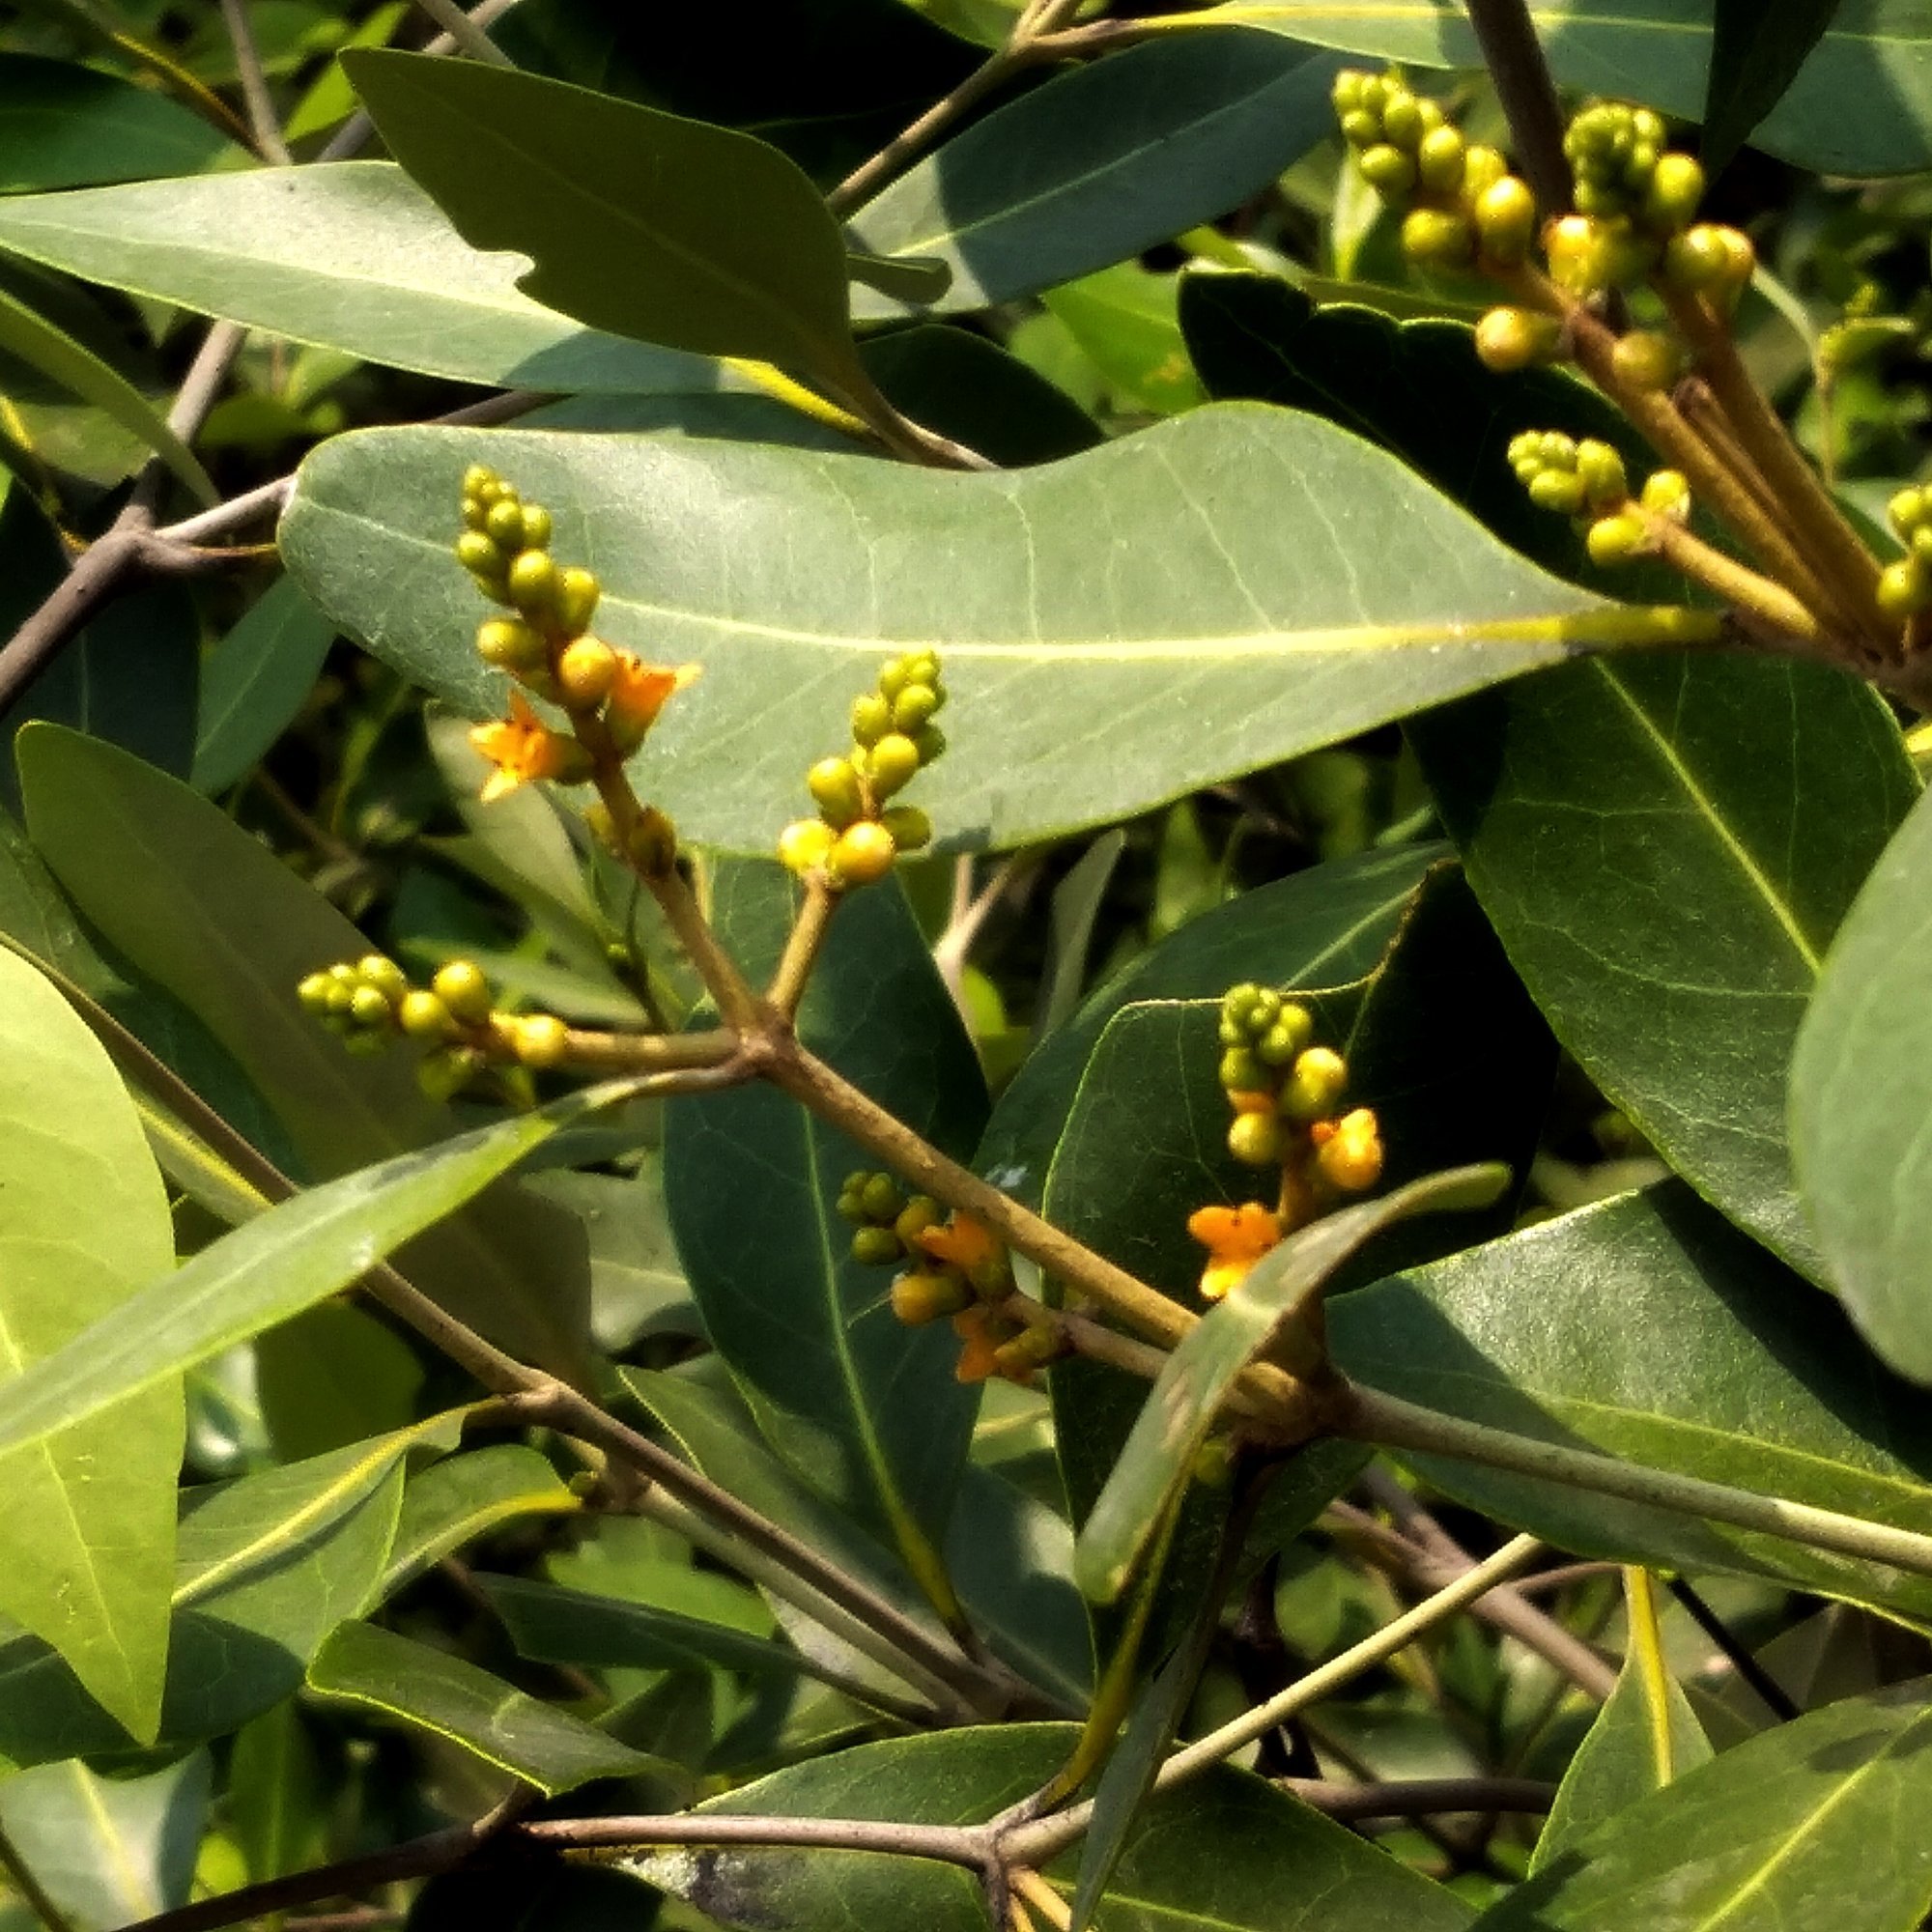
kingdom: Plantae
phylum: Tracheophyta
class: Magnoliopsida
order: Lamiales
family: Acanthaceae
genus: Avicennia
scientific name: Avicennia alba
